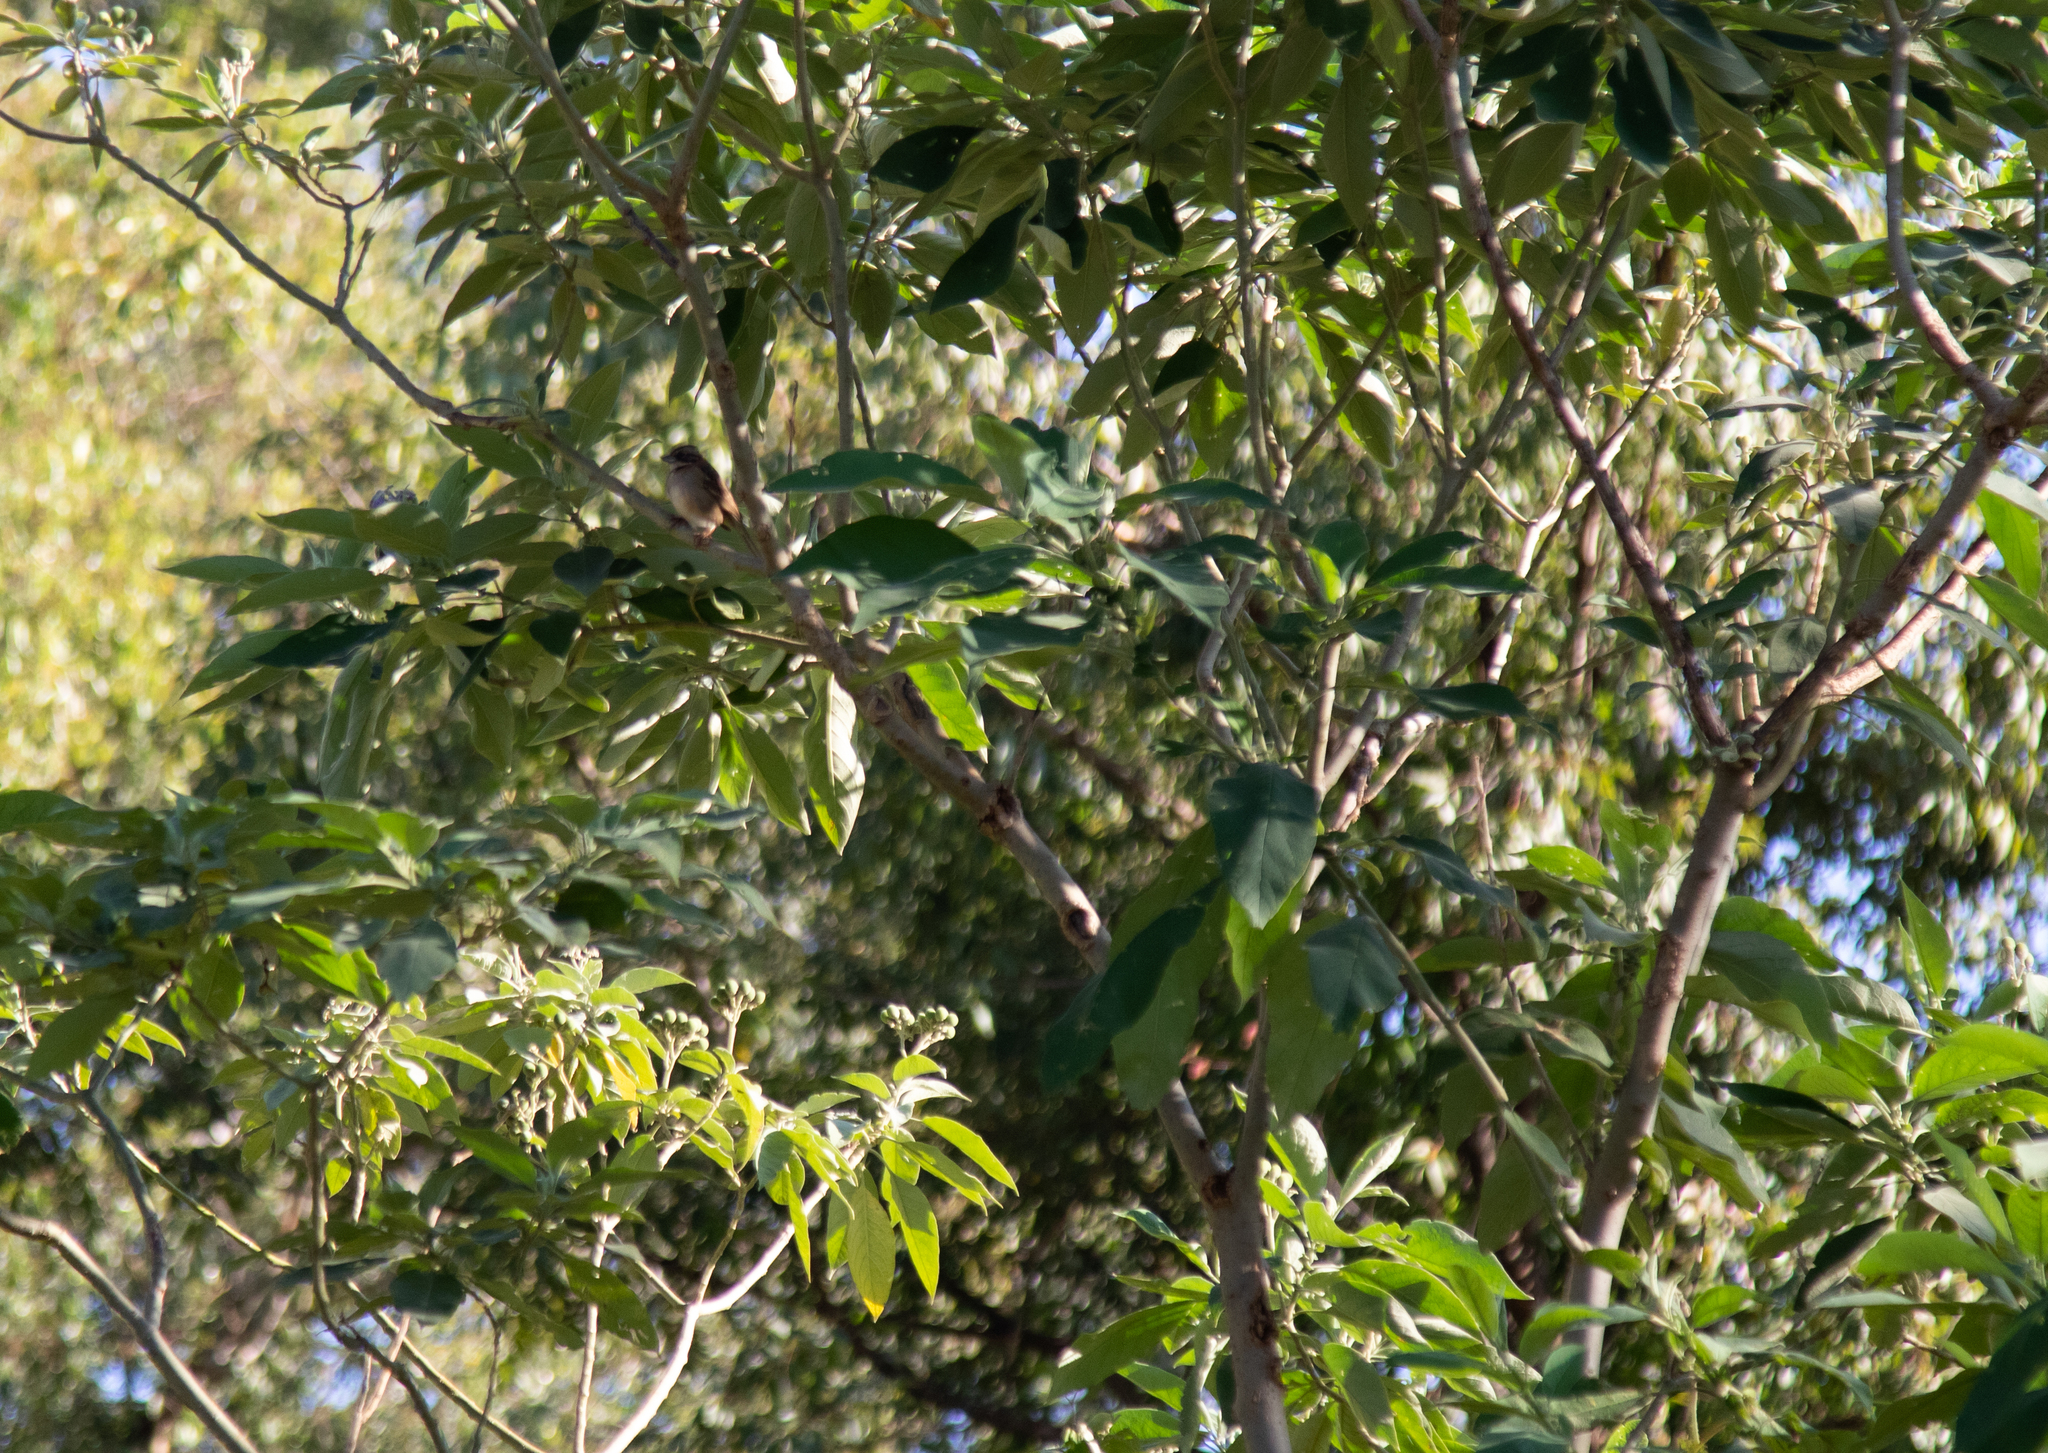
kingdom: Animalia
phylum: Chordata
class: Aves
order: Passeriformes
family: Passerellidae
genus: Zonotrichia
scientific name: Zonotrichia capensis
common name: Rufous-collared sparrow
